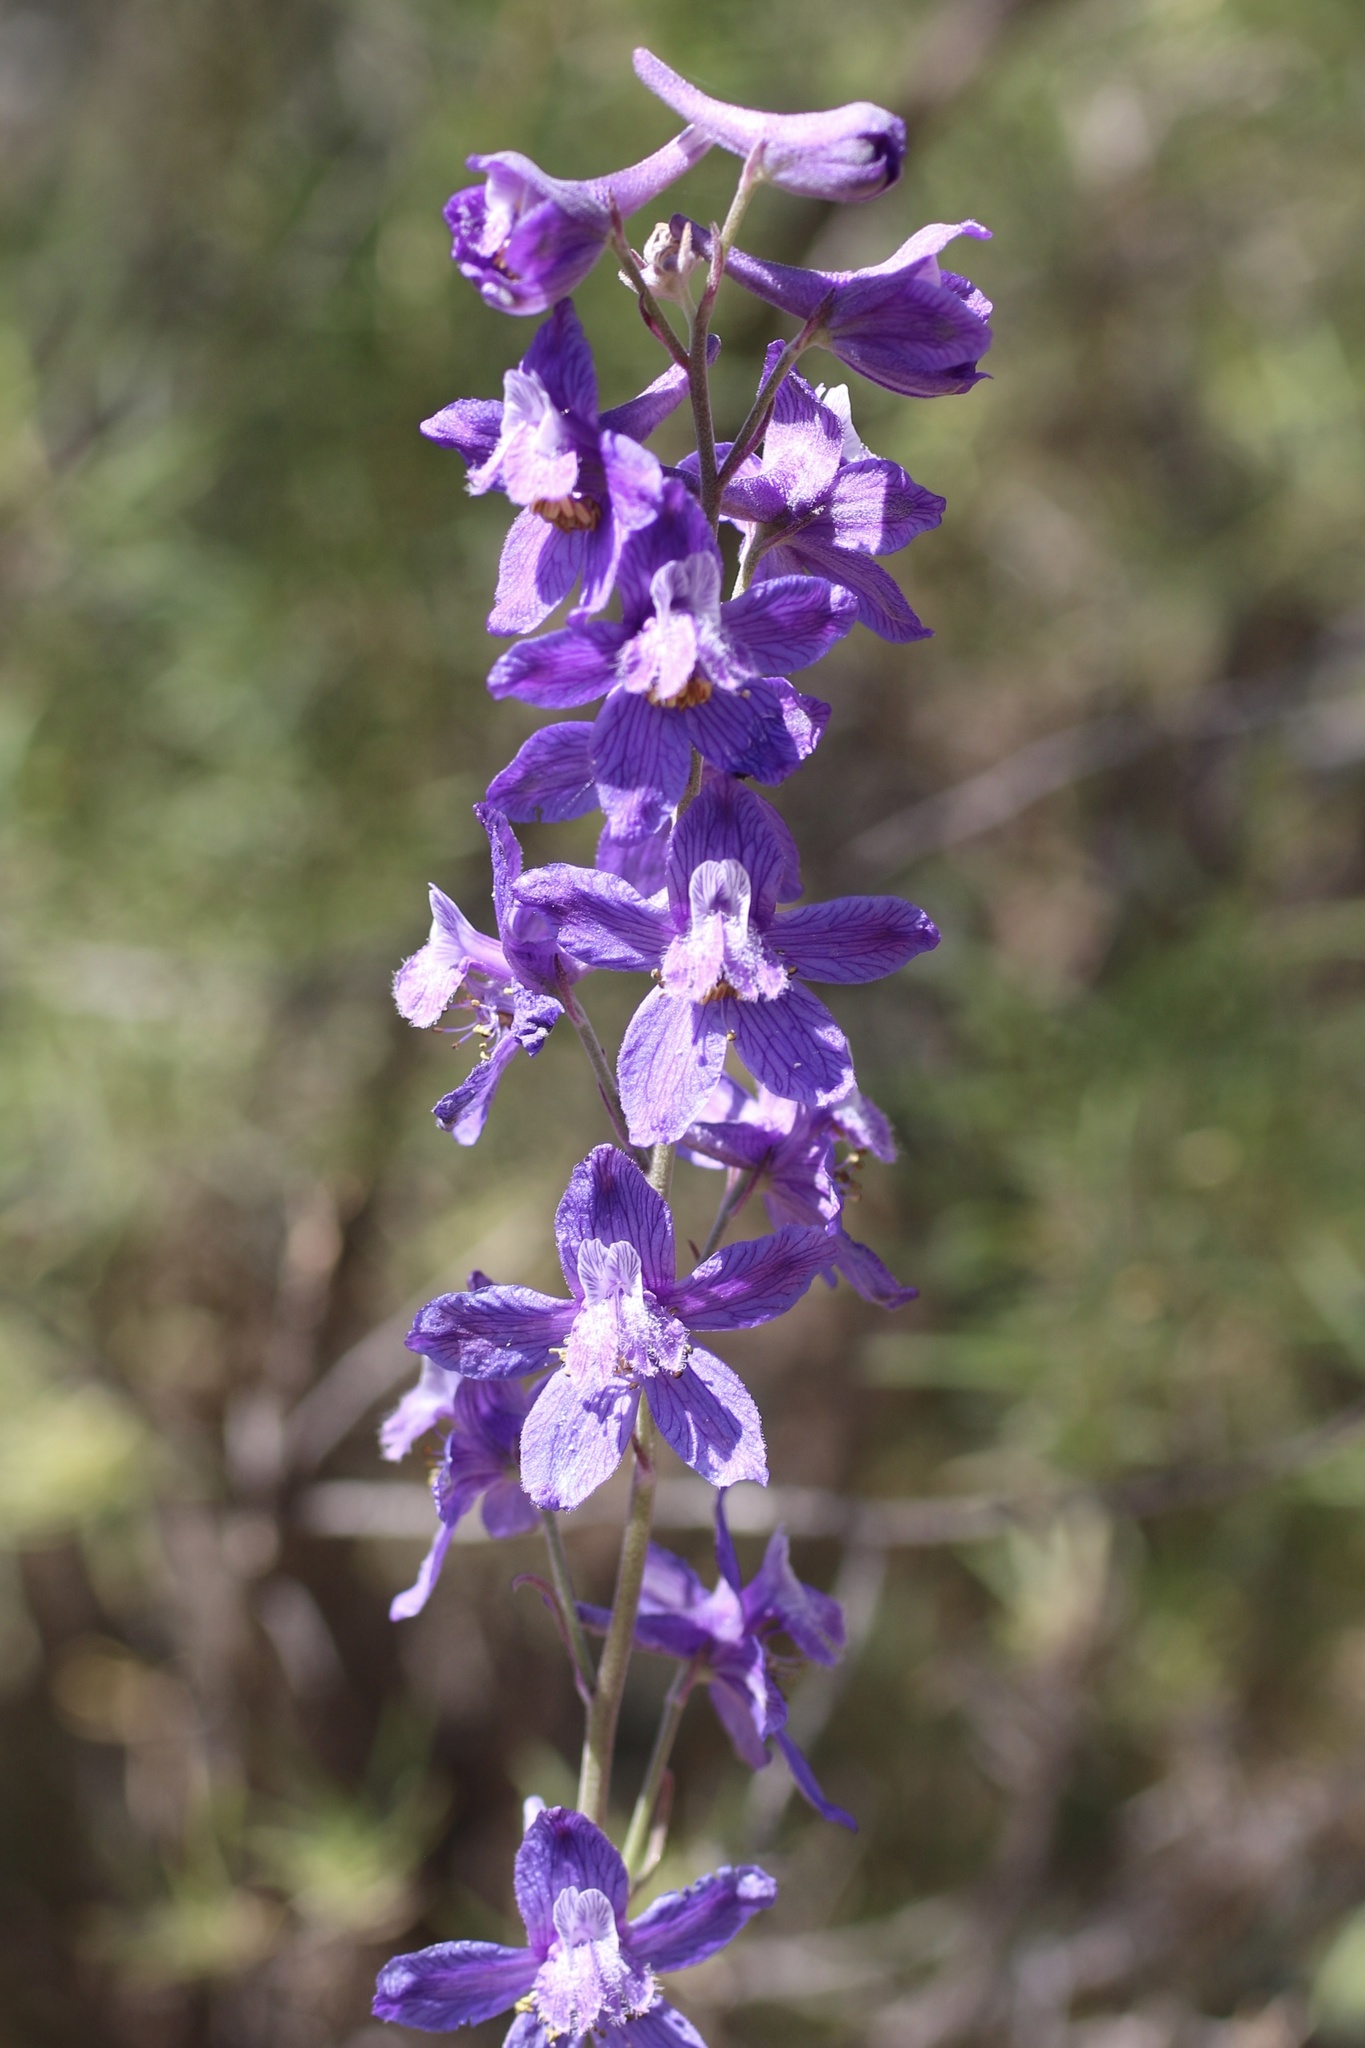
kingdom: Plantae
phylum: Tracheophyta
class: Magnoliopsida
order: Ranunculales
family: Ranunculaceae
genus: Delphinium
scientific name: Delphinium parryi
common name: Parry's larkspur
